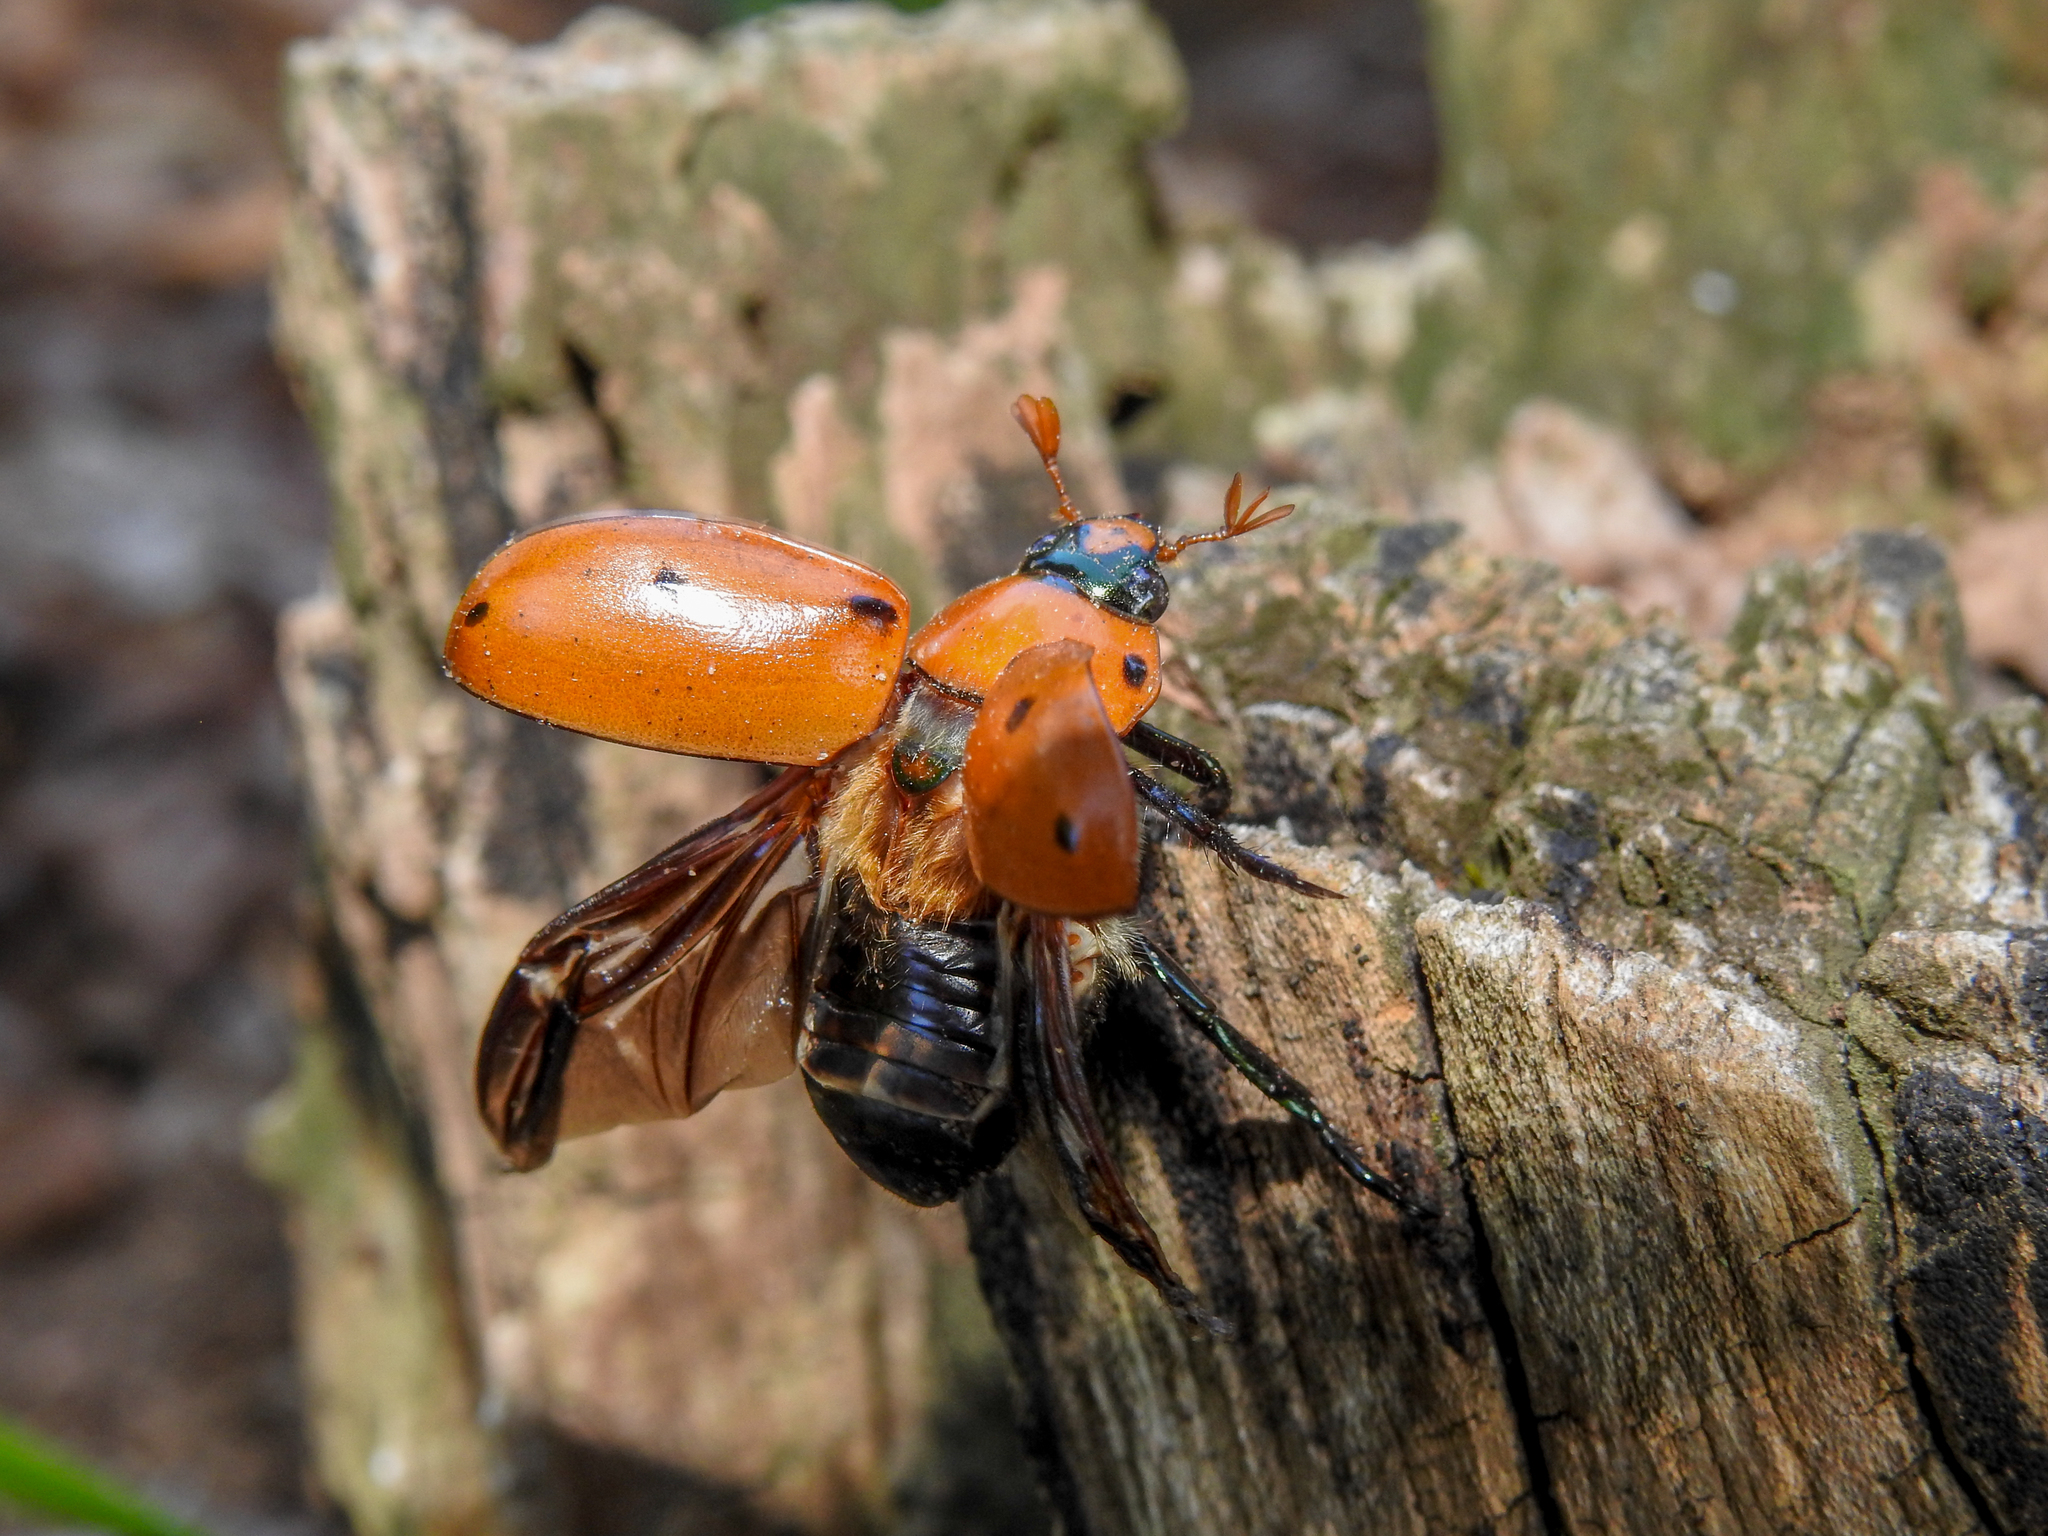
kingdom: Animalia
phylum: Arthropoda
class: Insecta
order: Coleoptera
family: Scarabaeidae
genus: Pelidnota
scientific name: Pelidnota punctata
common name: Grapevine beetle
